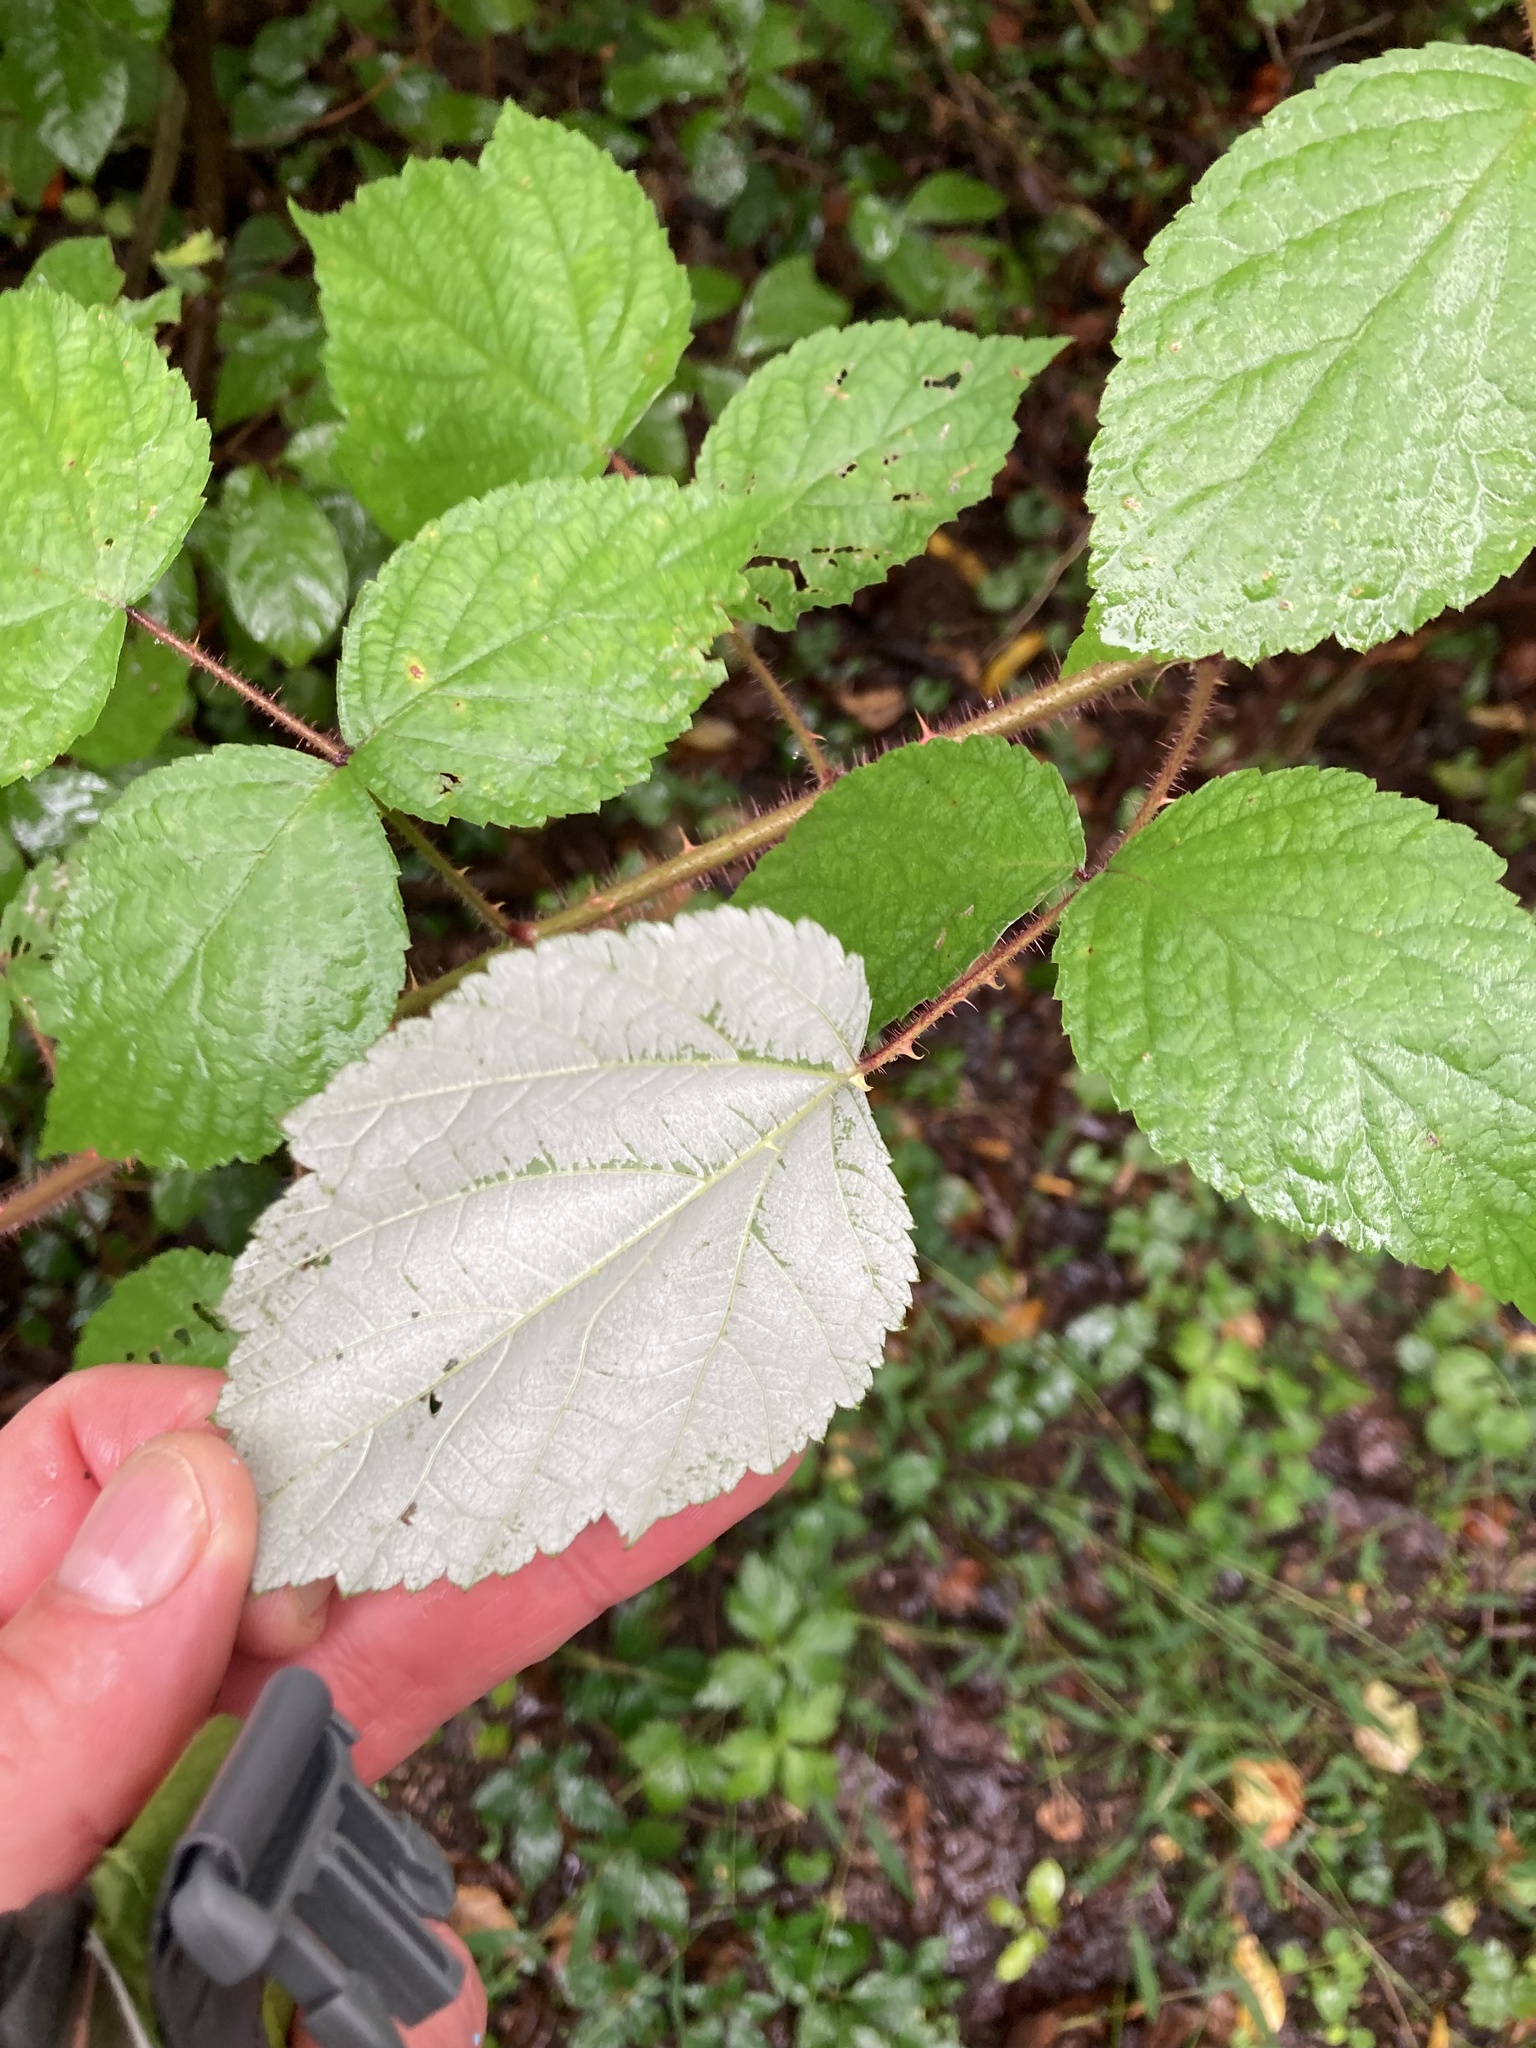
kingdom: Plantae
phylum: Tracheophyta
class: Magnoliopsida
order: Rosales
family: Rosaceae
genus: Rubus
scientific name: Rubus phoenicolasius
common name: Japanese wineberry
